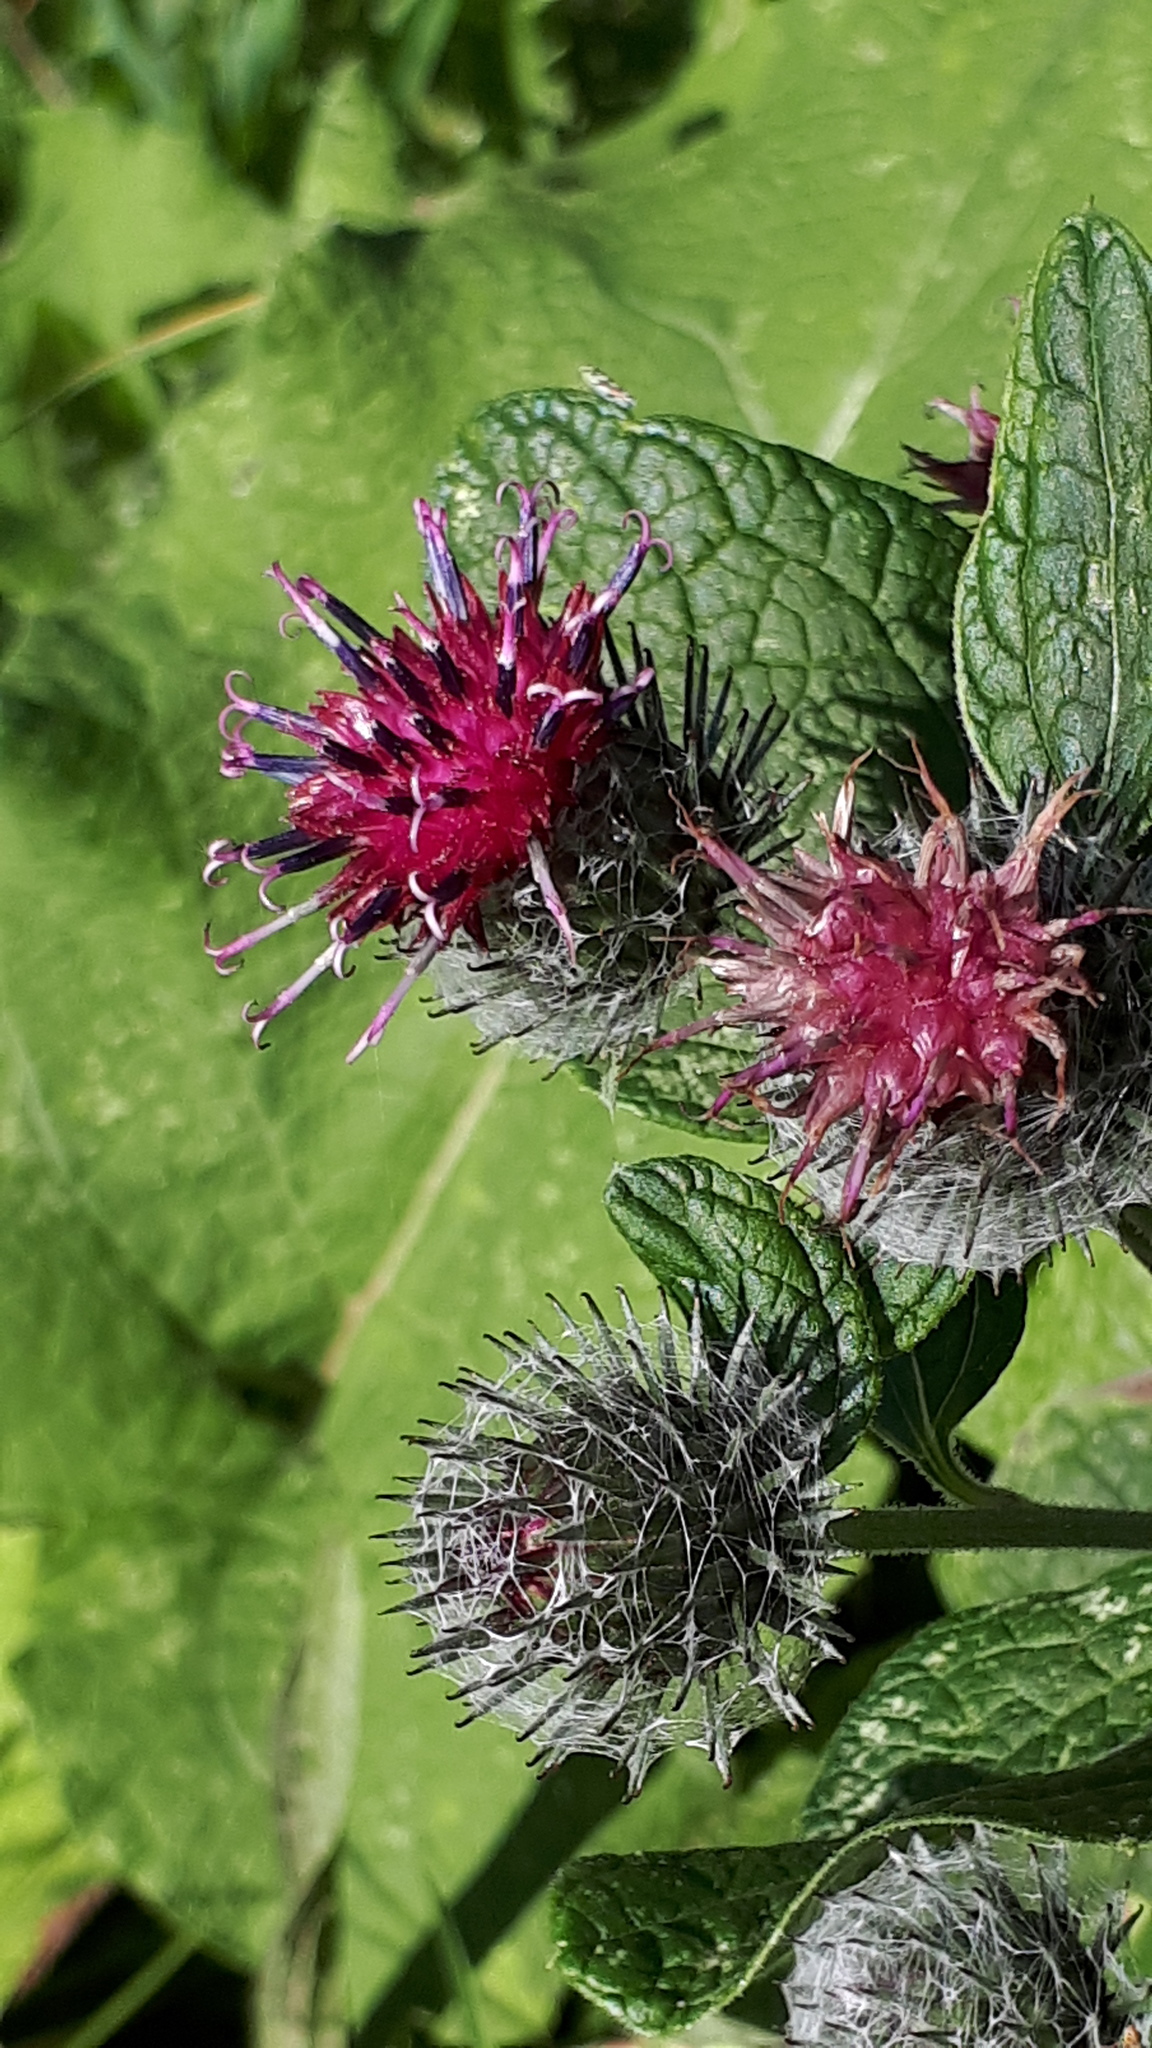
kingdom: Plantae
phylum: Tracheophyta
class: Magnoliopsida
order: Asterales
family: Asteraceae
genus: Arctium
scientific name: Arctium tomentosum
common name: Woolly burdock
